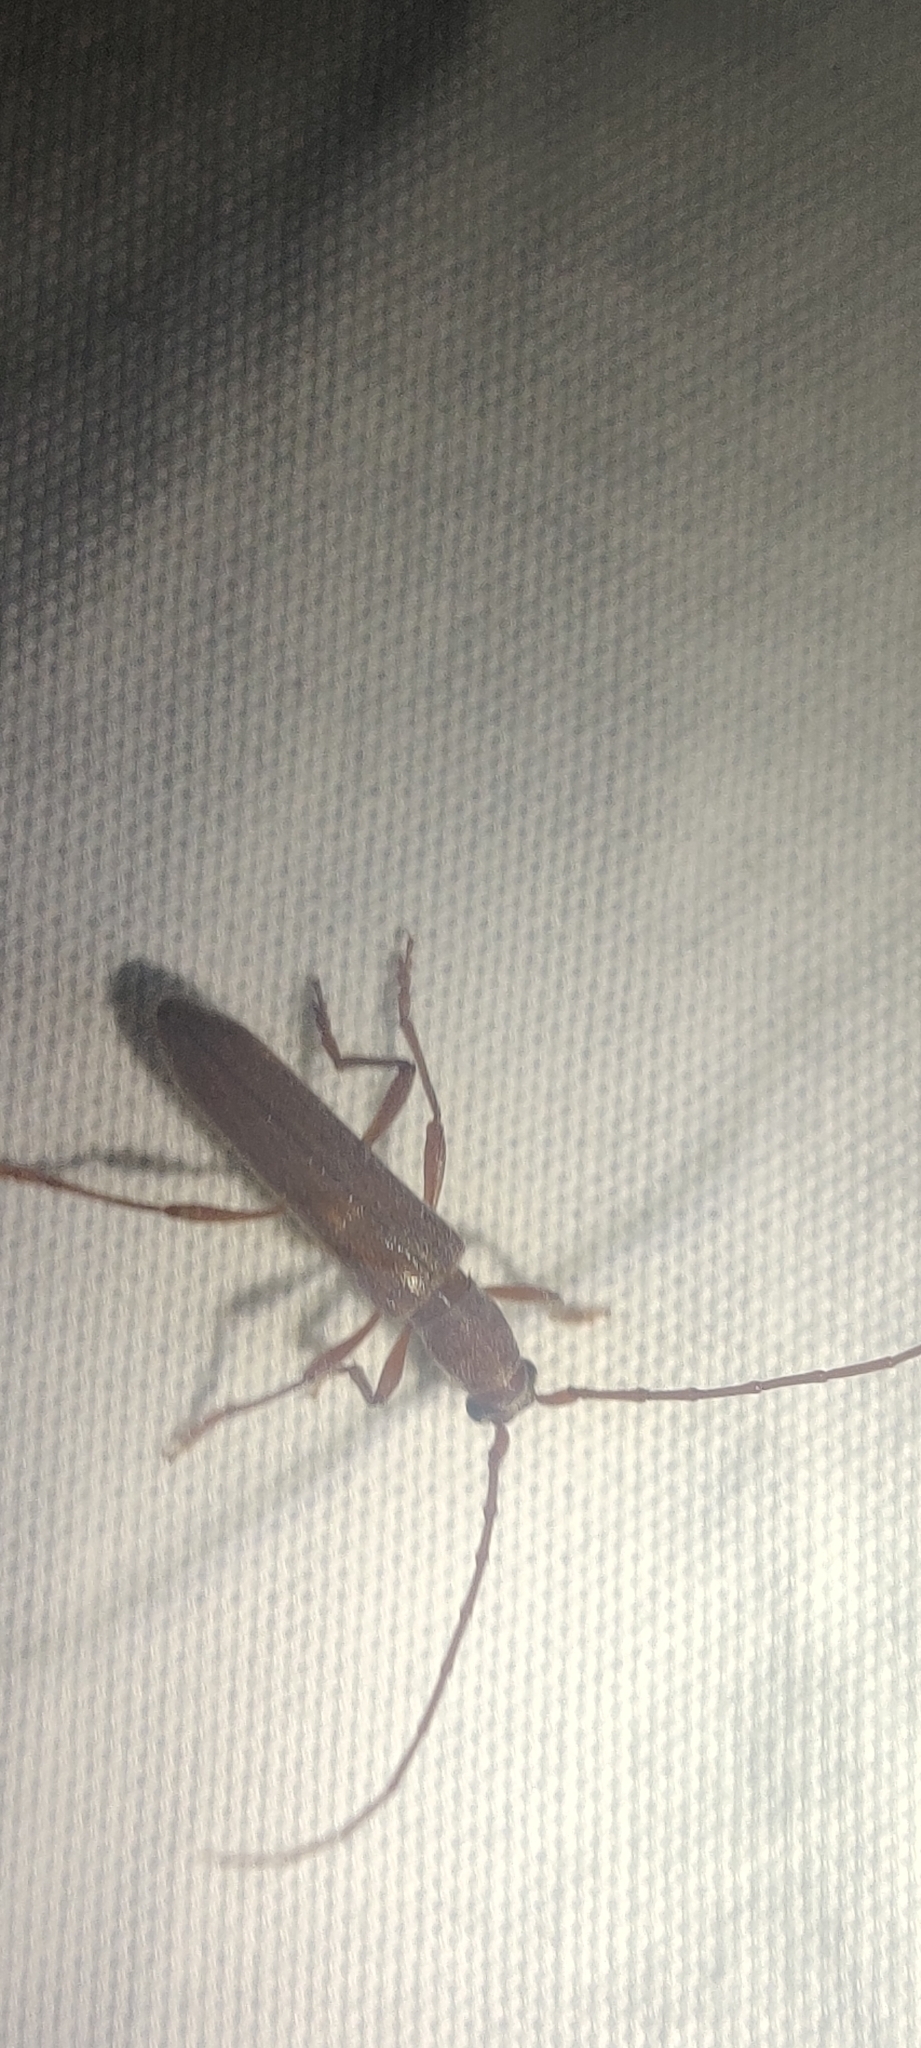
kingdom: Animalia
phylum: Arthropoda
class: Insecta
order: Coleoptera
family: Cerambycidae
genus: Aneflomorpha
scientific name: Aneflomorpha lineare
